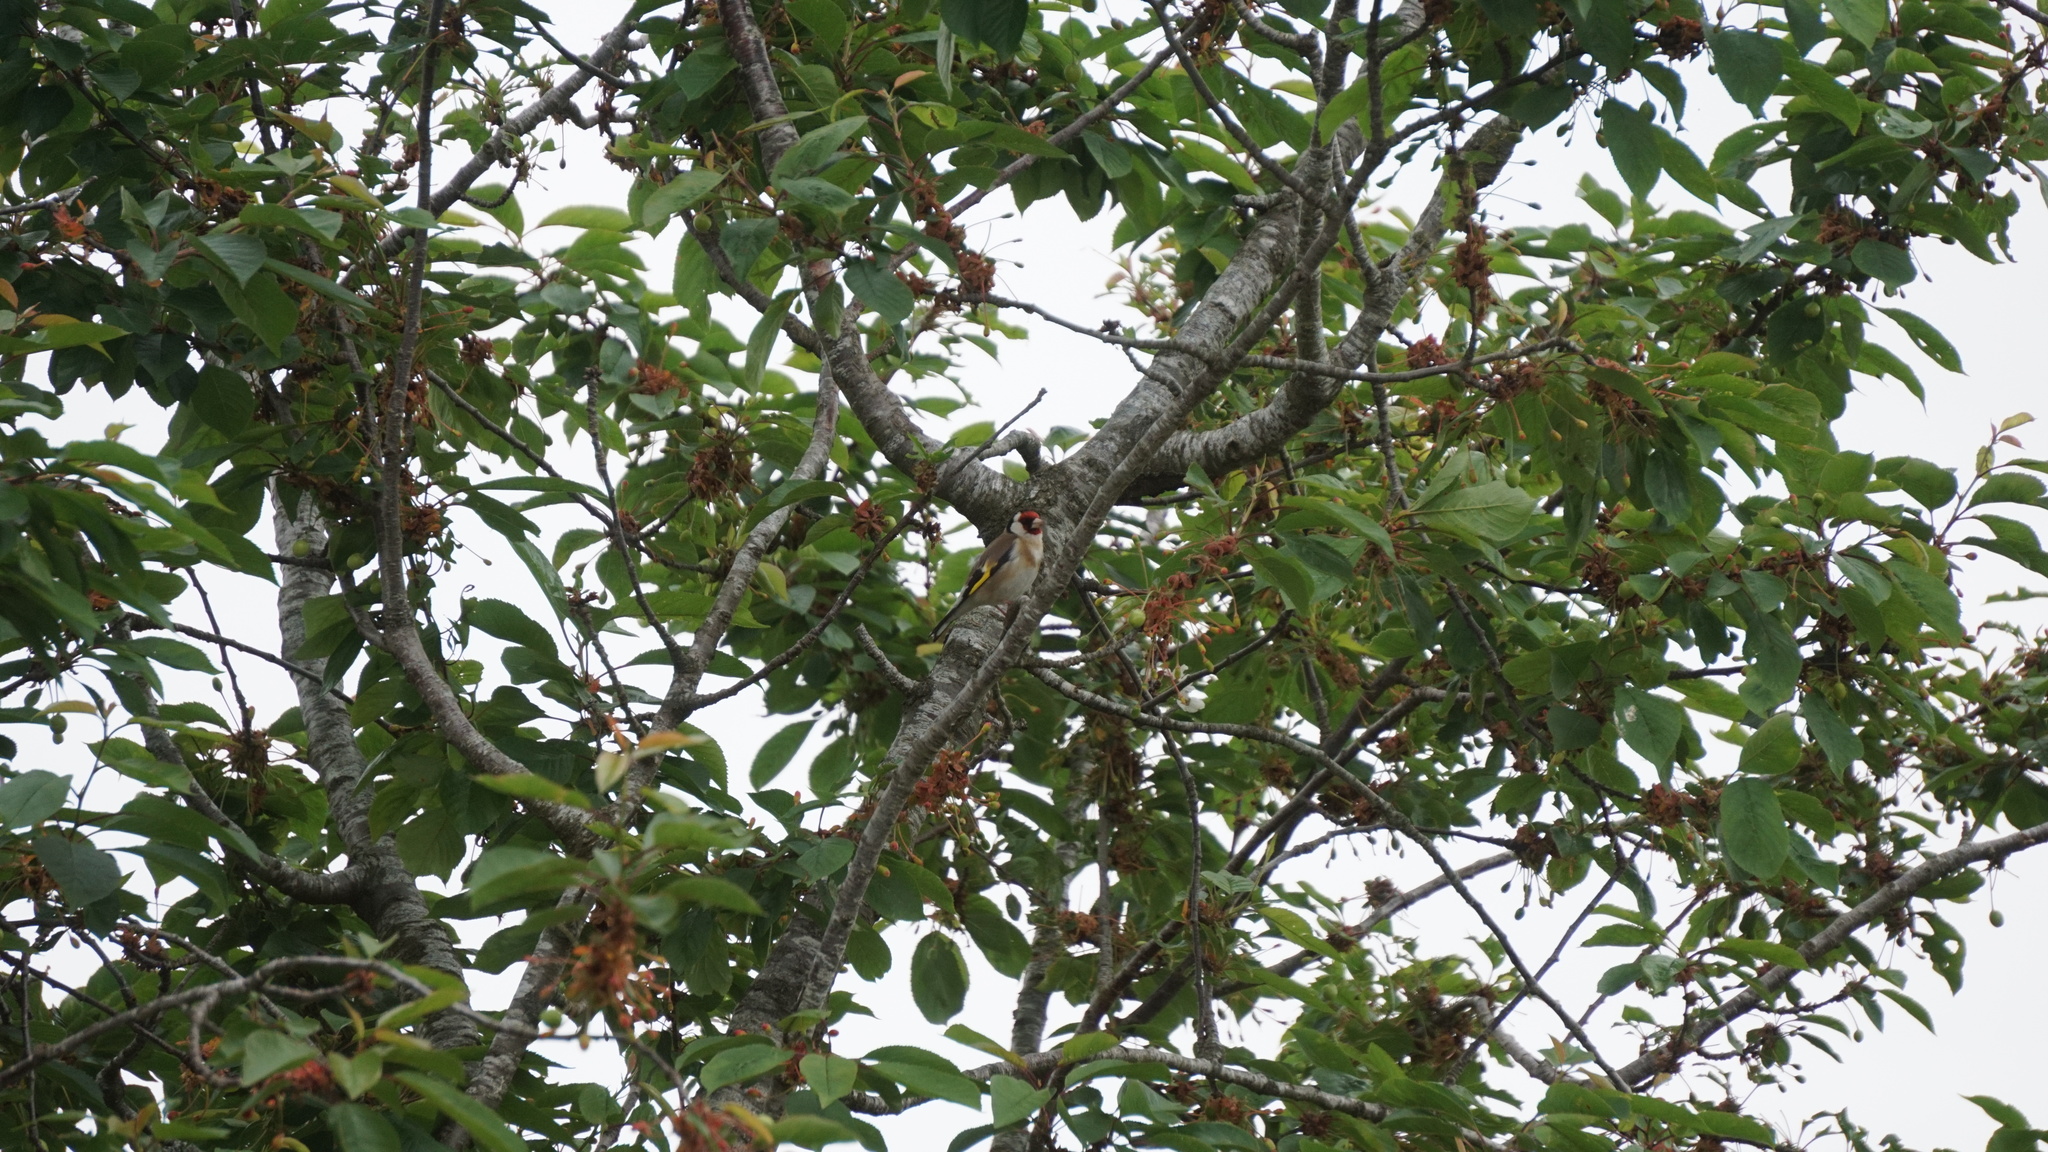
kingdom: Animalia
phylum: Chordata
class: Aves
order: Passeriformes
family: Fringillidae
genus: Carduelis
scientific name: Carduelis carduelis
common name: European goldfinch
